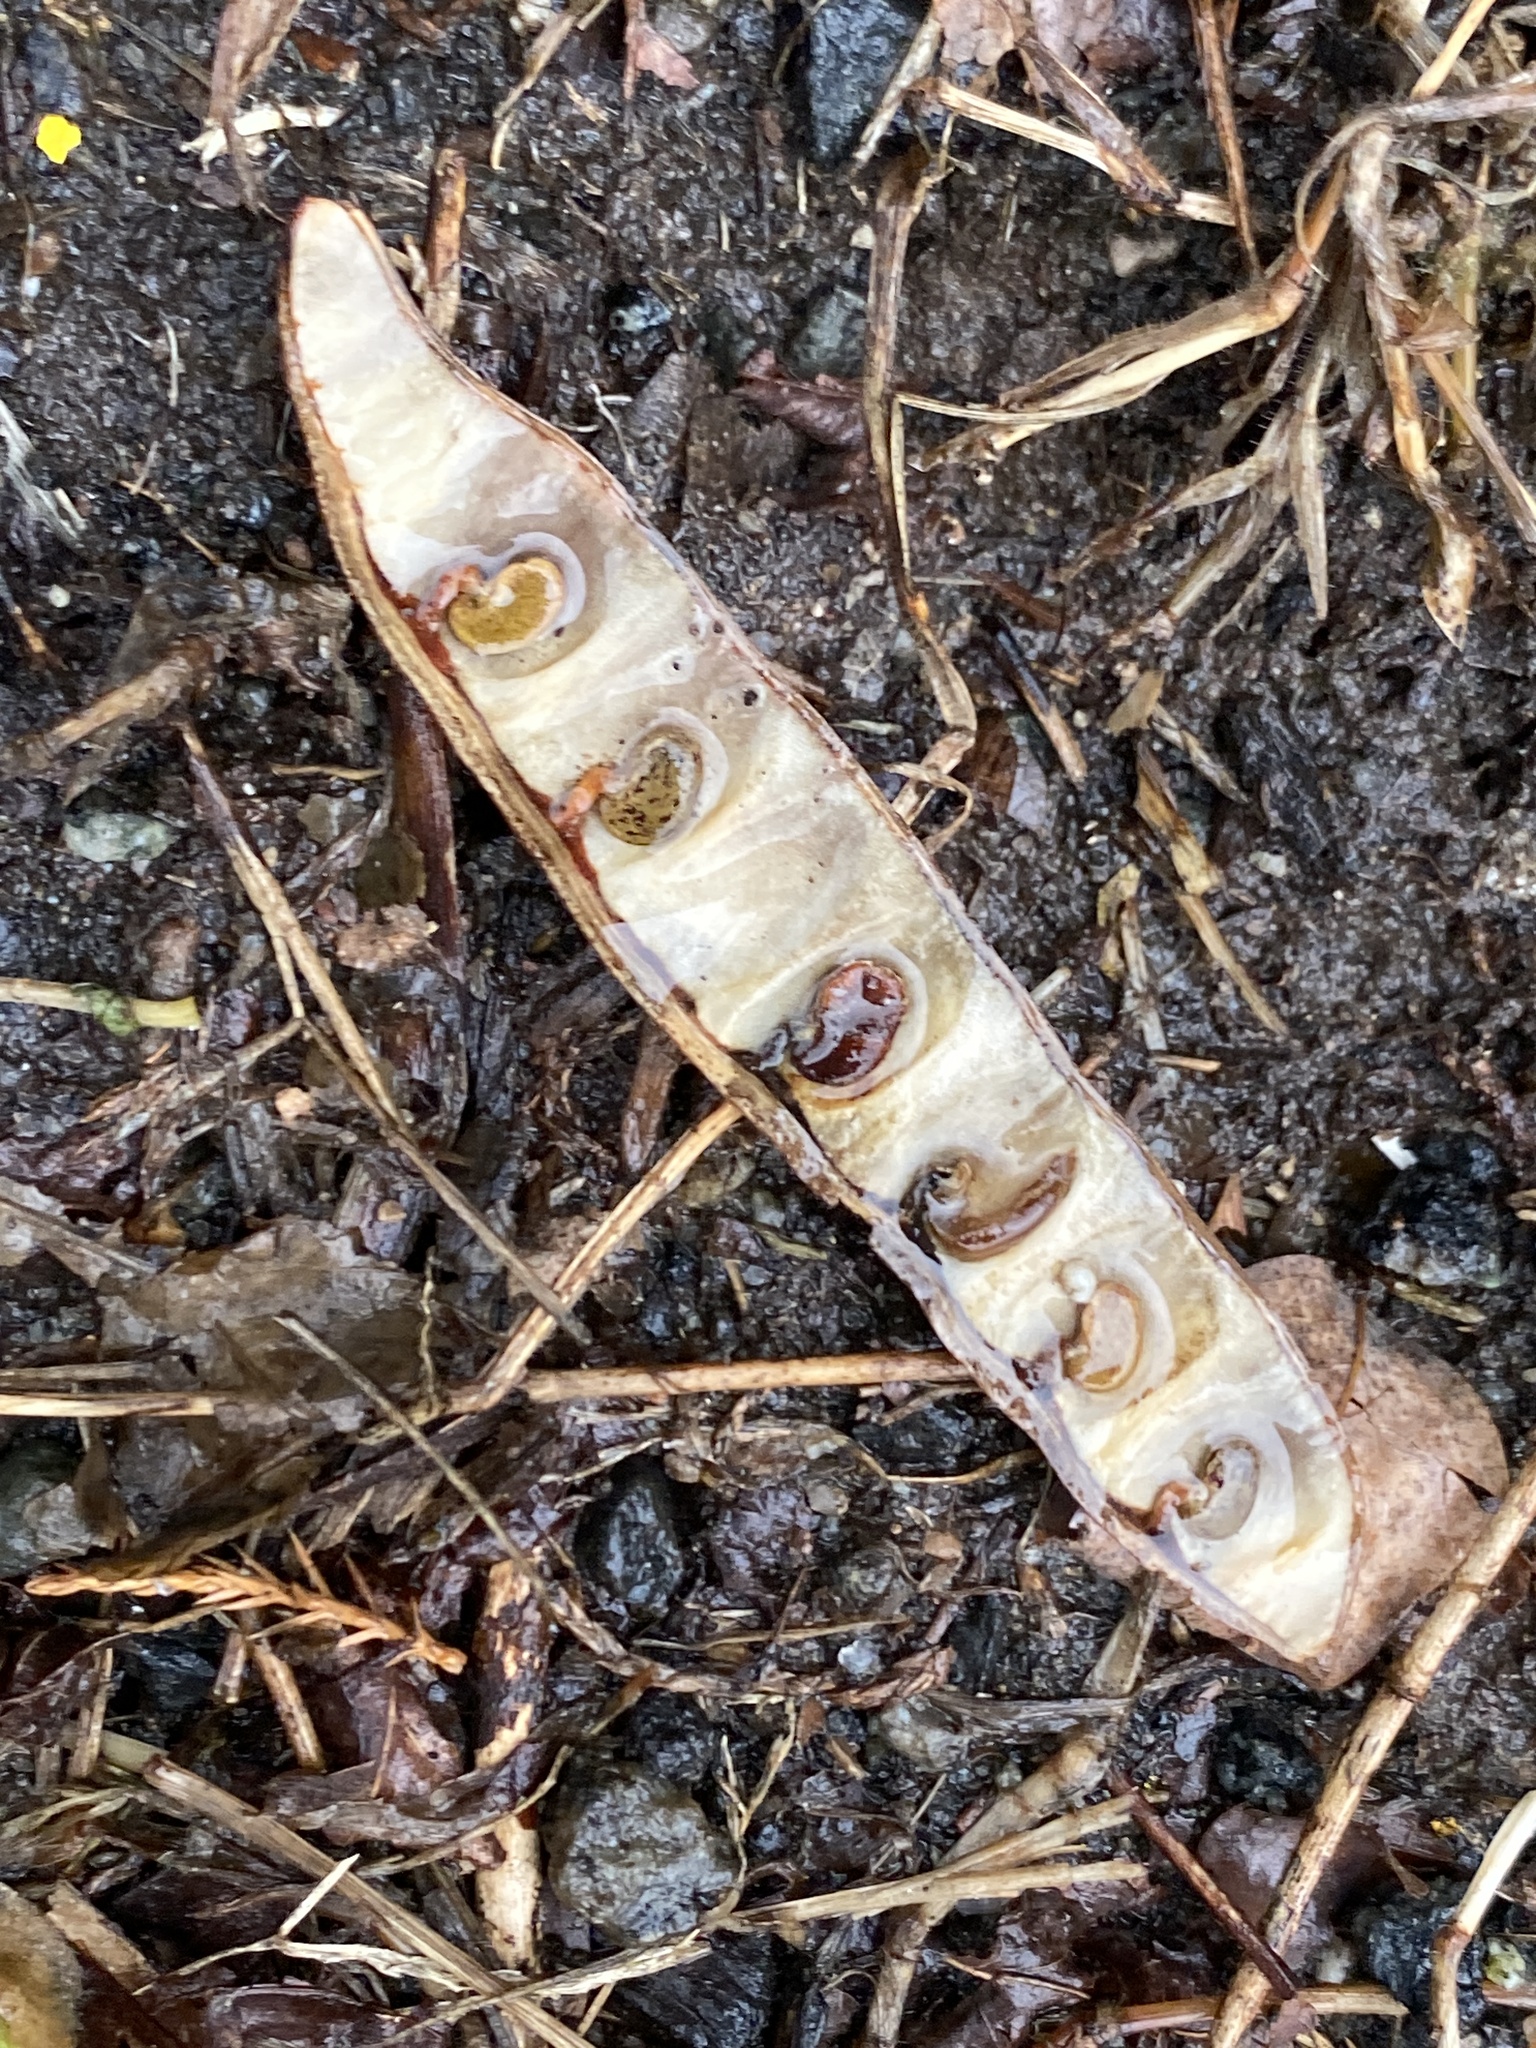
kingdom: Plantae
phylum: Tracheophyta
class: Magnoliopsida
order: Fabales
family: Fabaceae
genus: Robinia
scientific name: Robinia pseudoacacia
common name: Black locust
